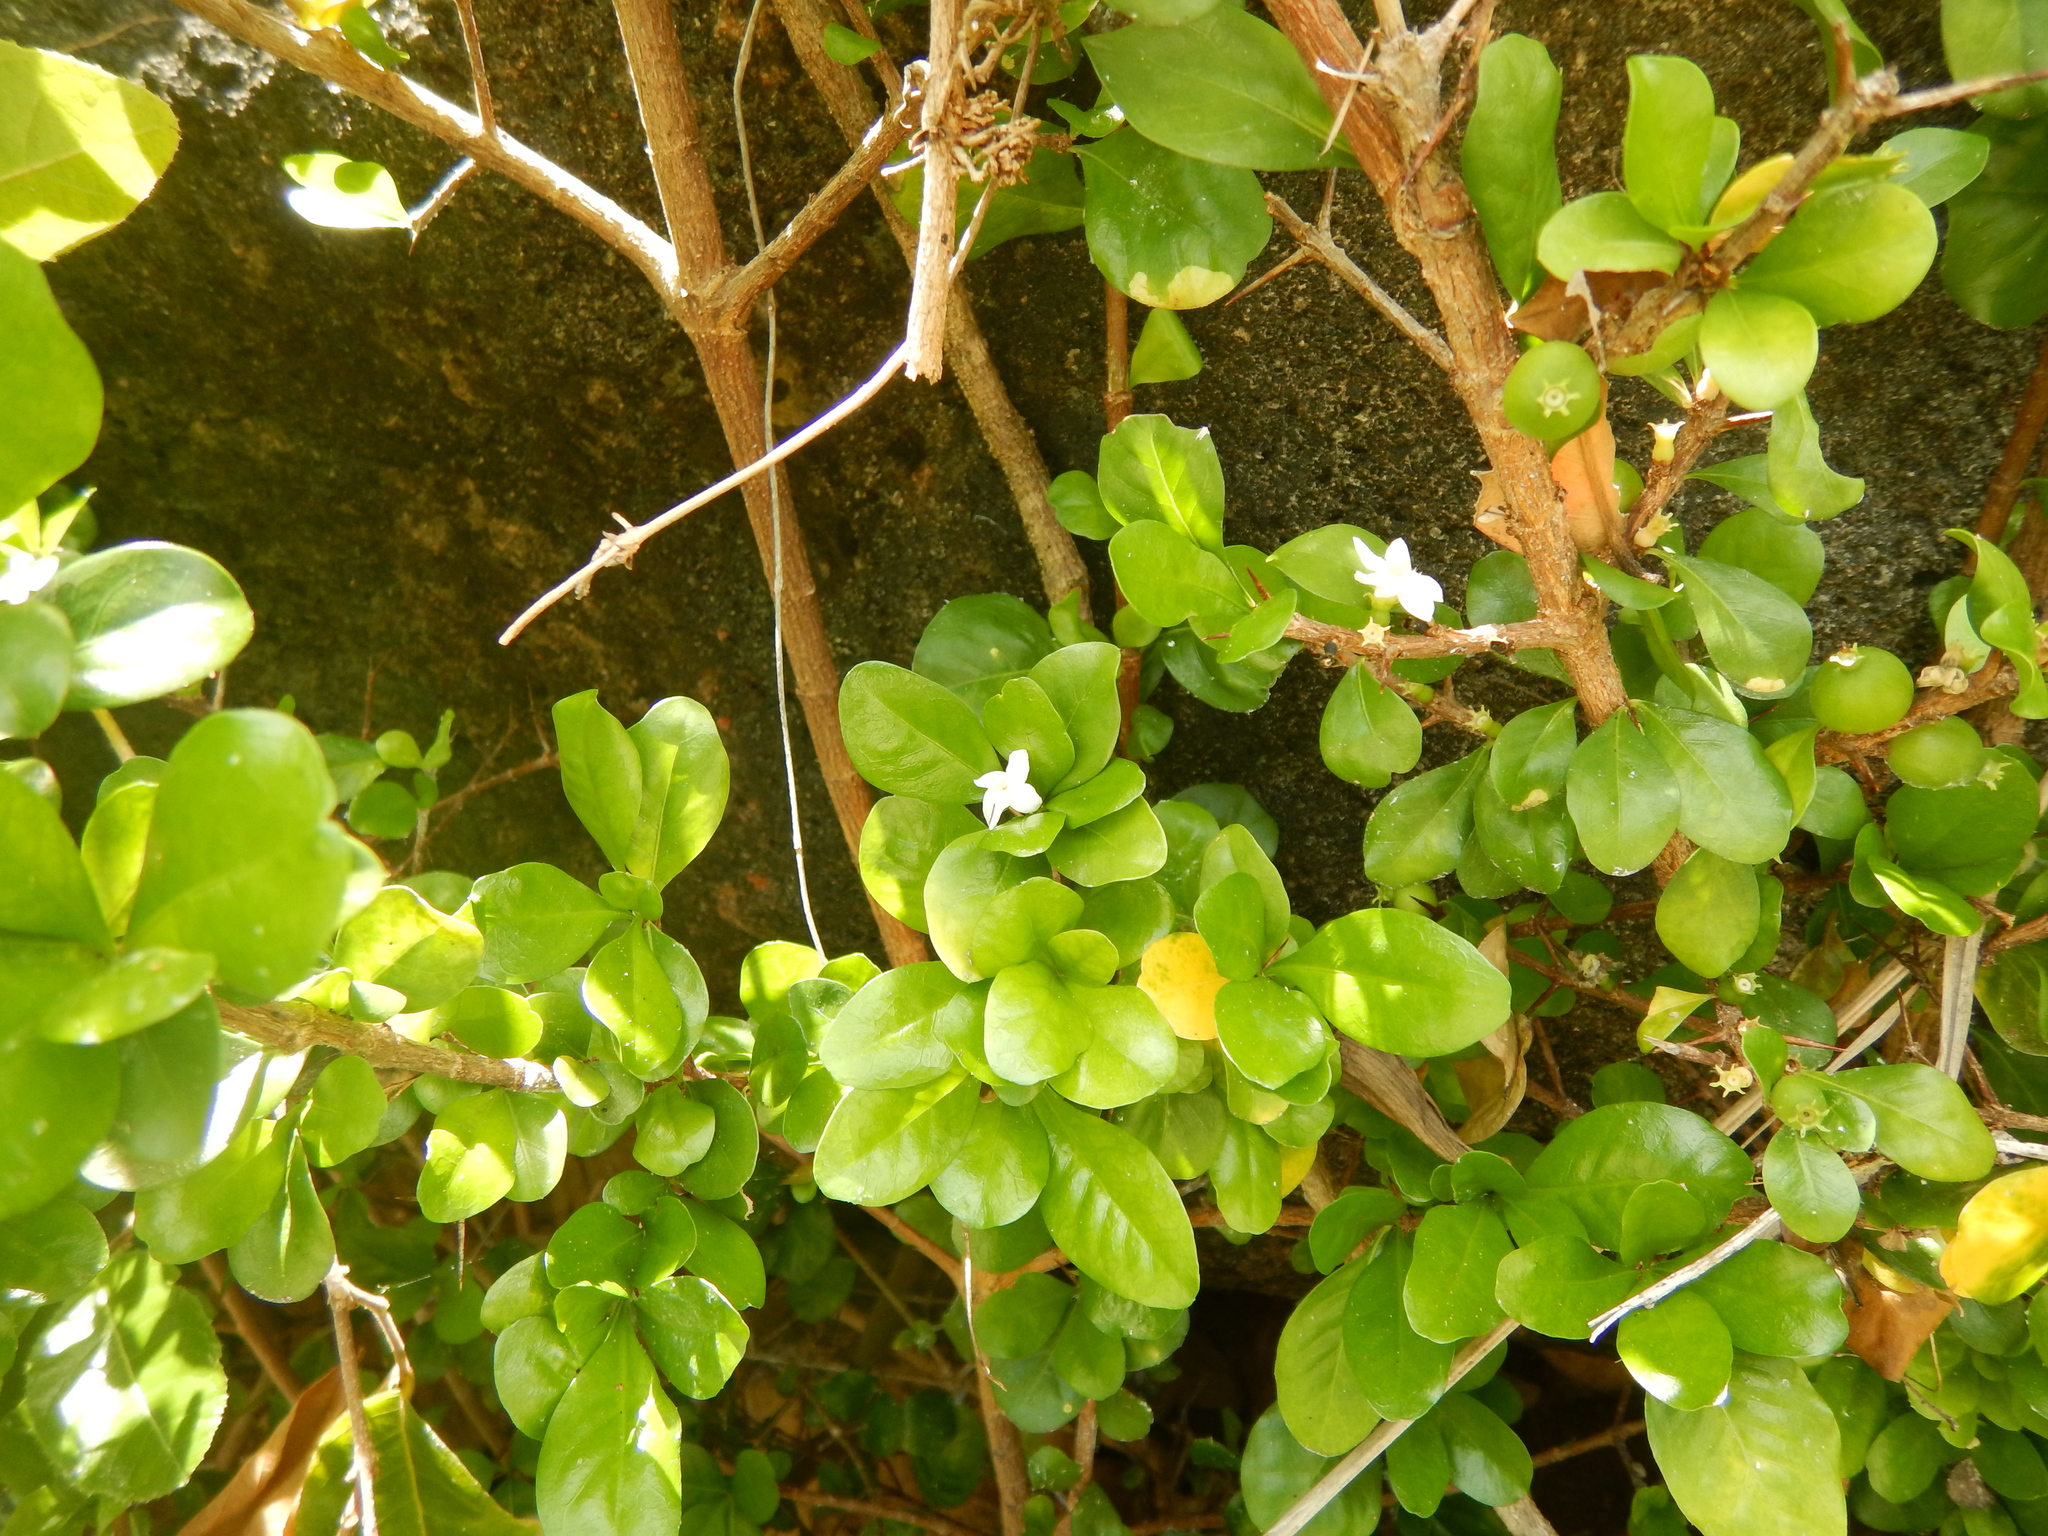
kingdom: Plantae
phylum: Tracheophyta
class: Magnoliopsida
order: Gentianales
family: Rubiaceae
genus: Randia
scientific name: Randia aculeata
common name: Inkberry
